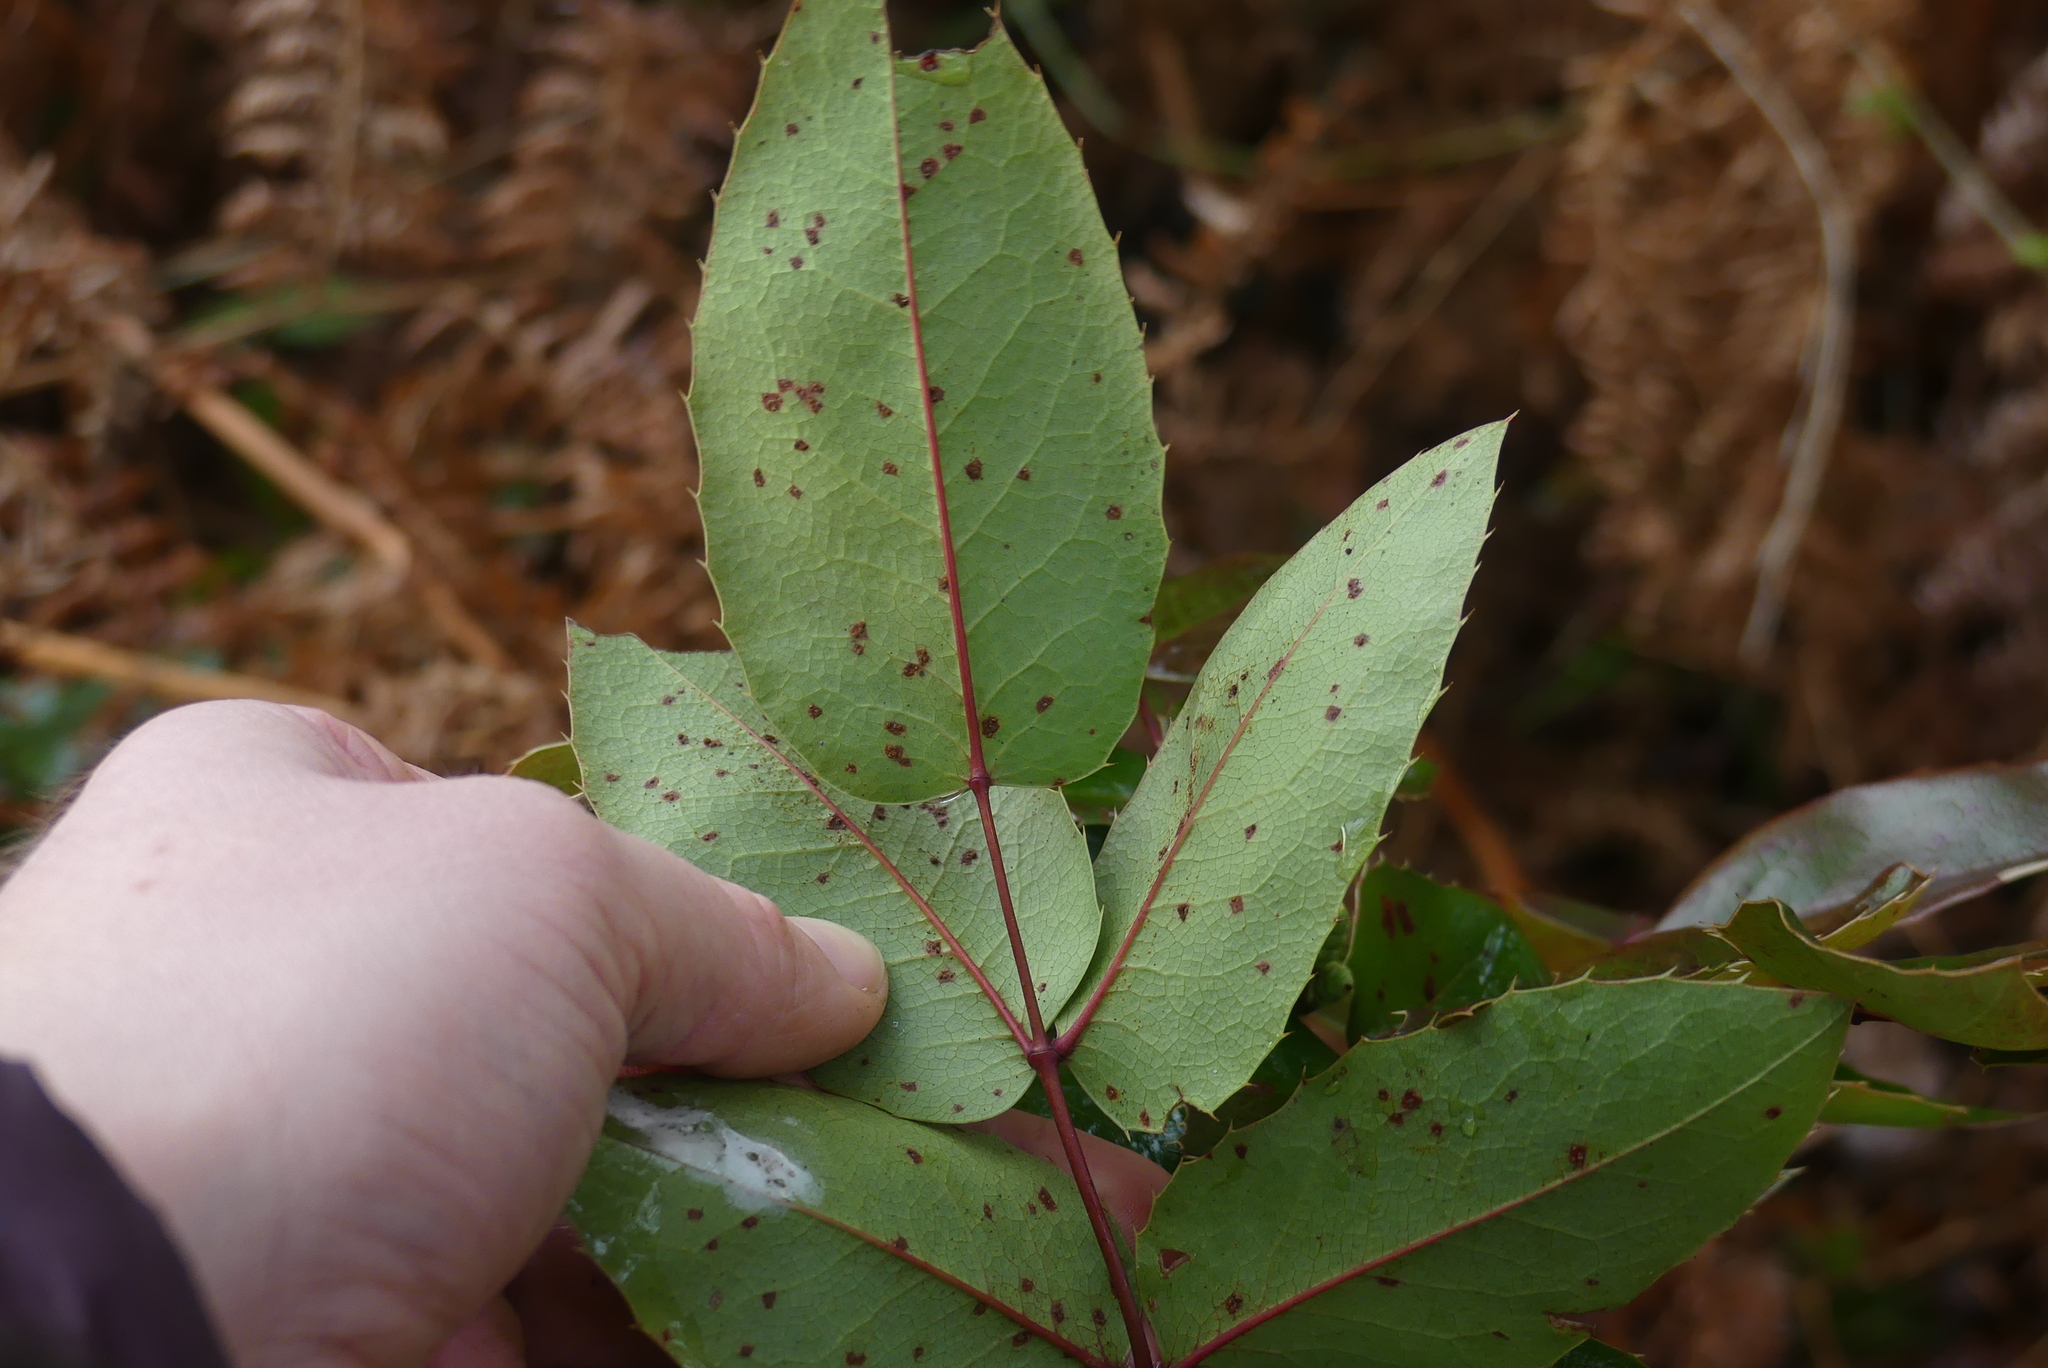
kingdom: Plantae
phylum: Tracheophyta
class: Magnoliopsida
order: Ranunculales
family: Berberidaceae
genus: Mahonia
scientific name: Mahonia aquifolium
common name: Oregon-grape
